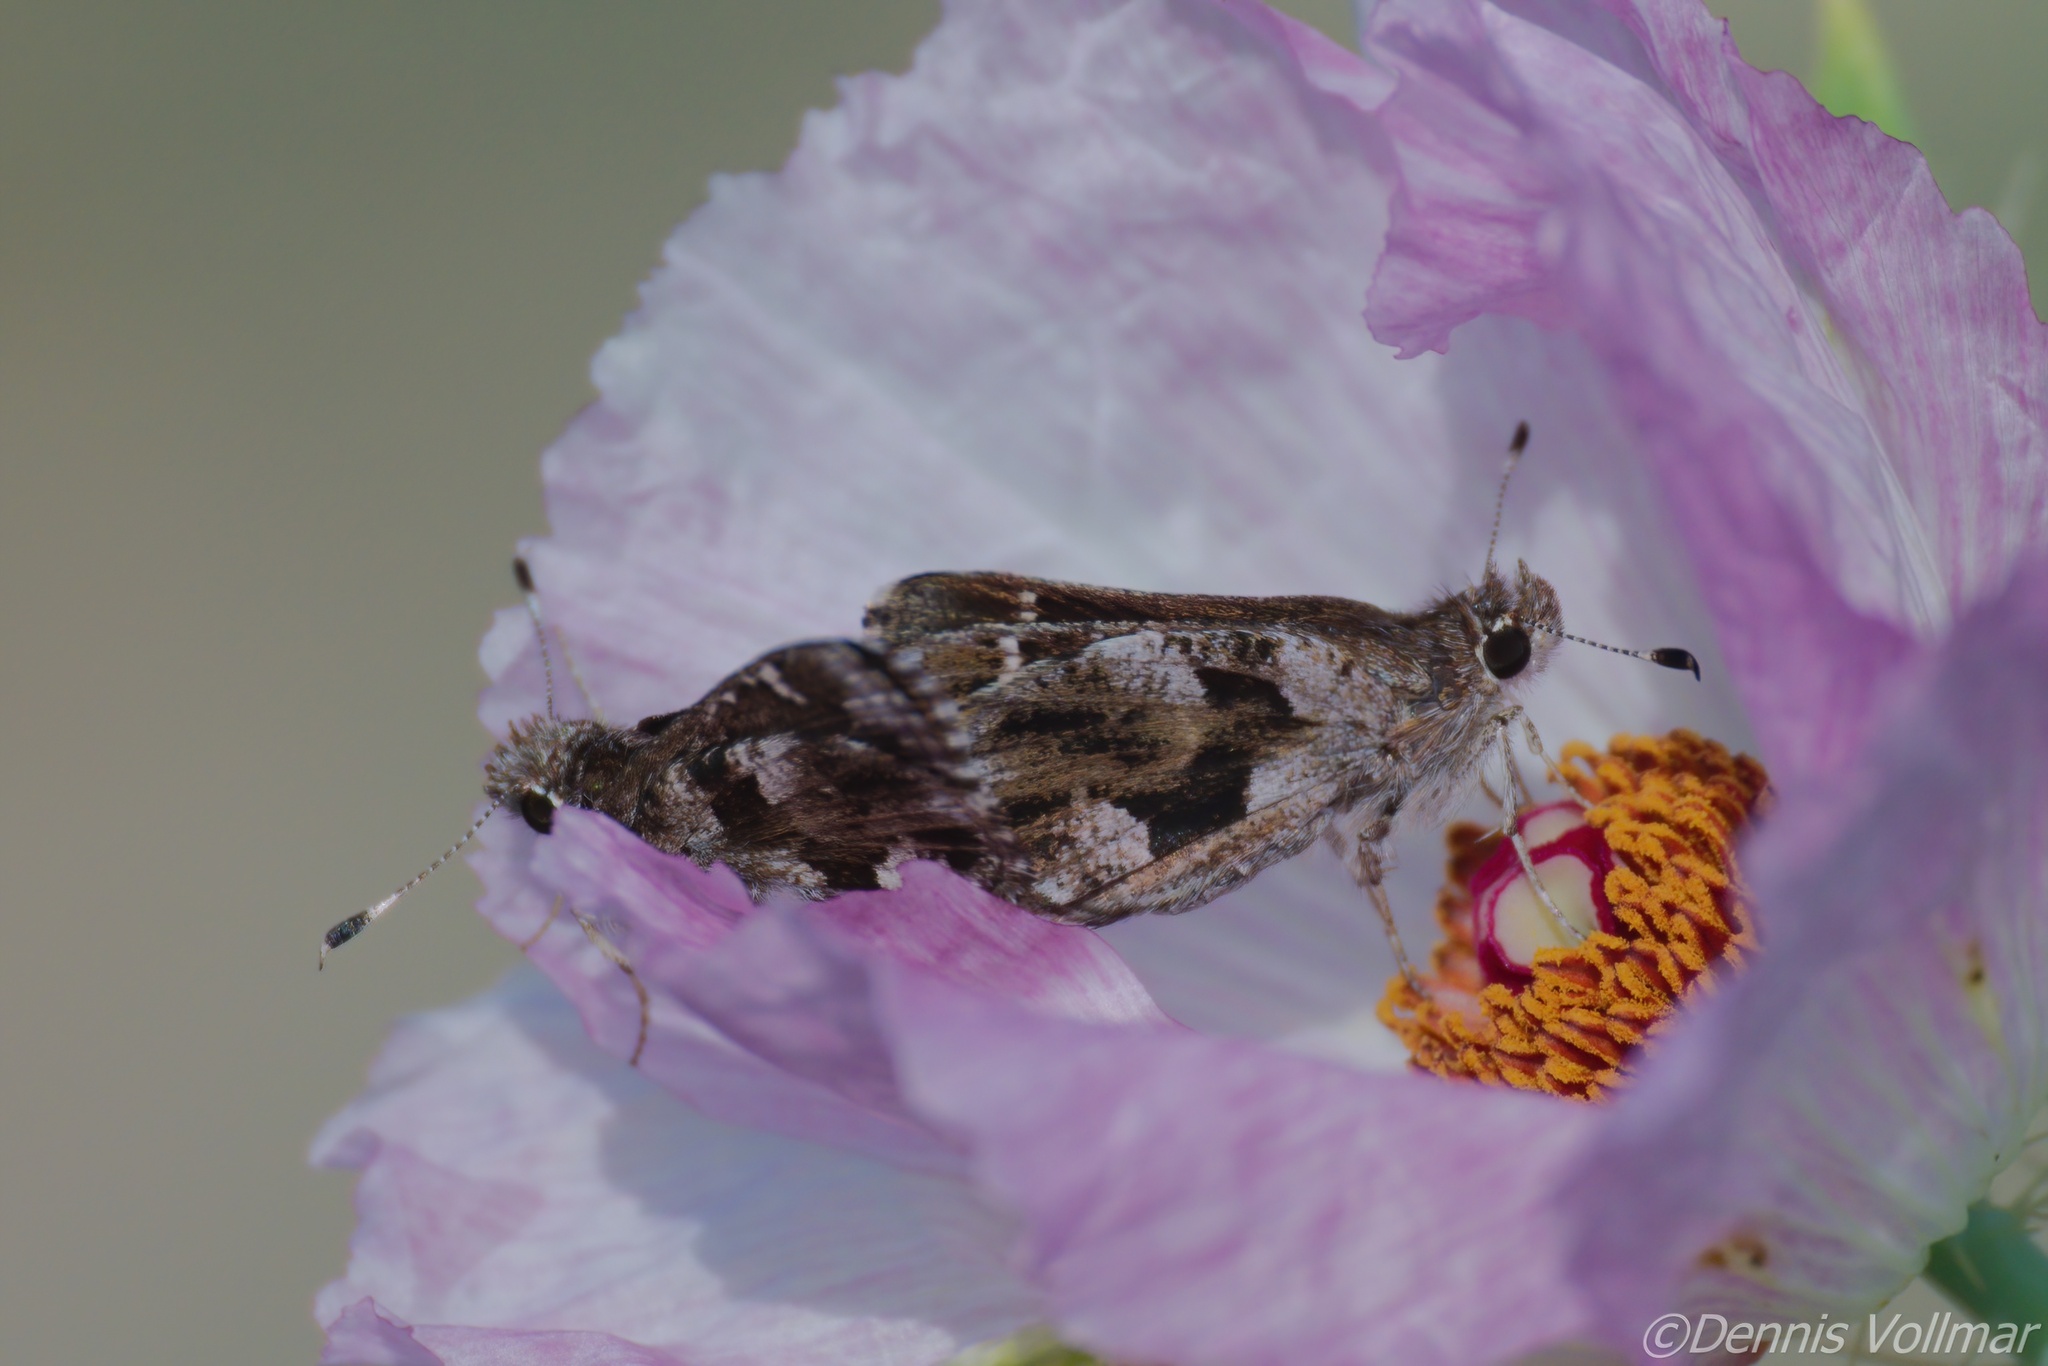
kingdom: Animalia
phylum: Arthropoda
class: Insecta
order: Lepidoptera
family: Hesperiidae
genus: Mastor
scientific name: Mastor nysa
